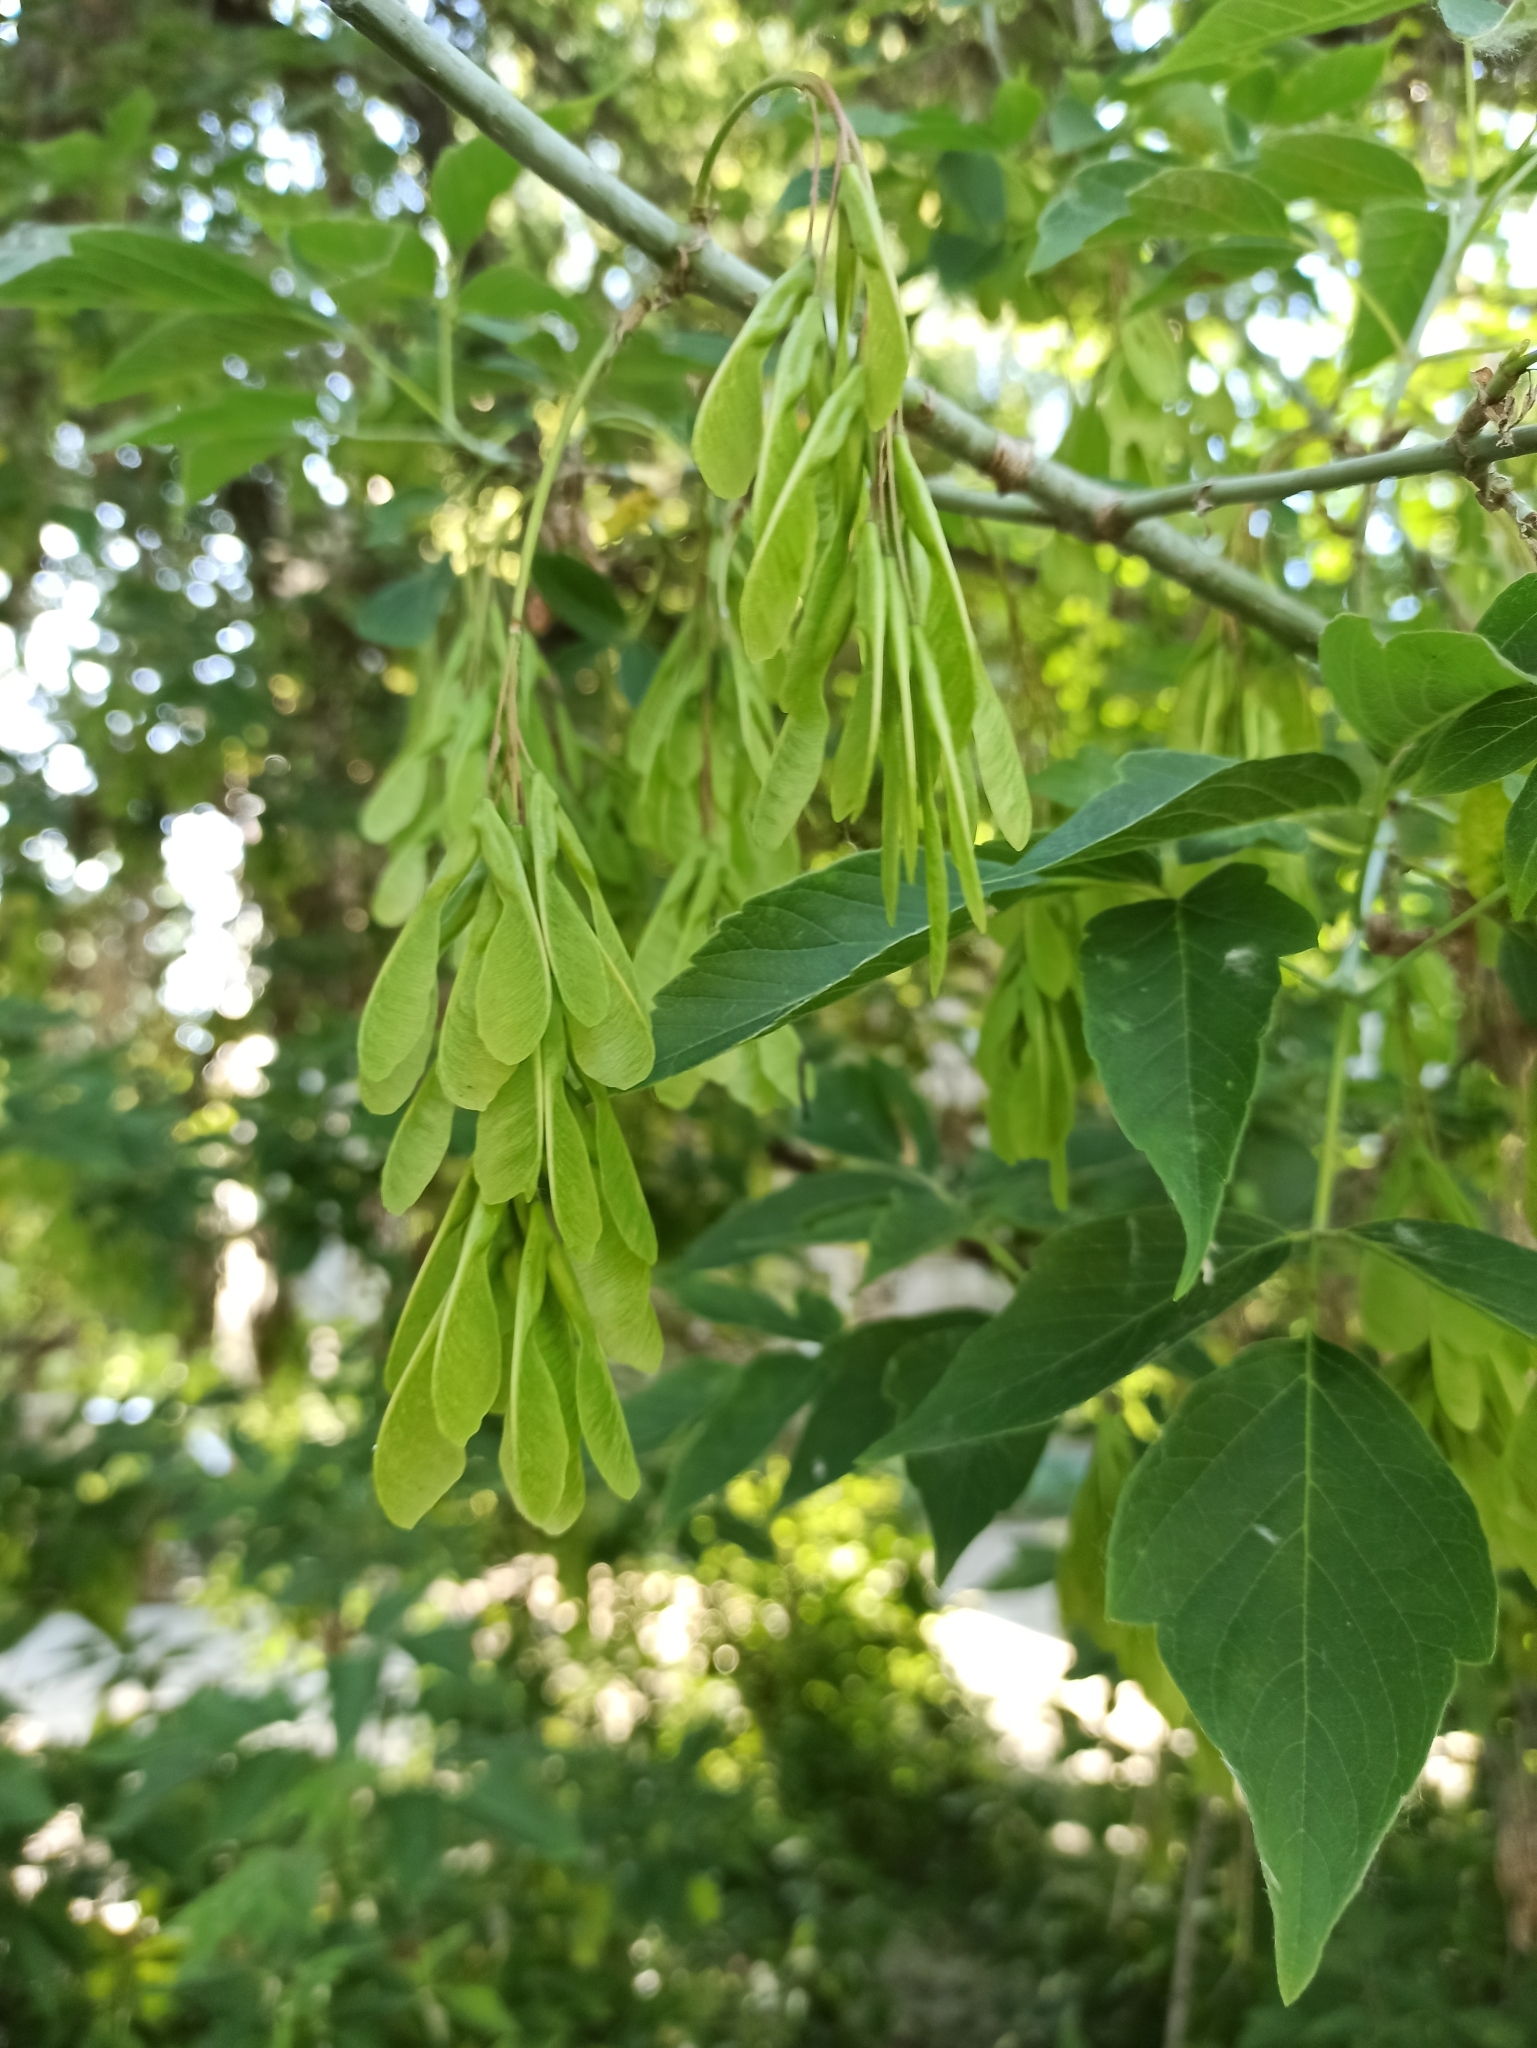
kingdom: Plantae
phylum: Tracheophyta
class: Magnoliopsida
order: Sapindales
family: Sapindaceae
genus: Acer
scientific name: Acer negundo
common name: Ashleaf maple
